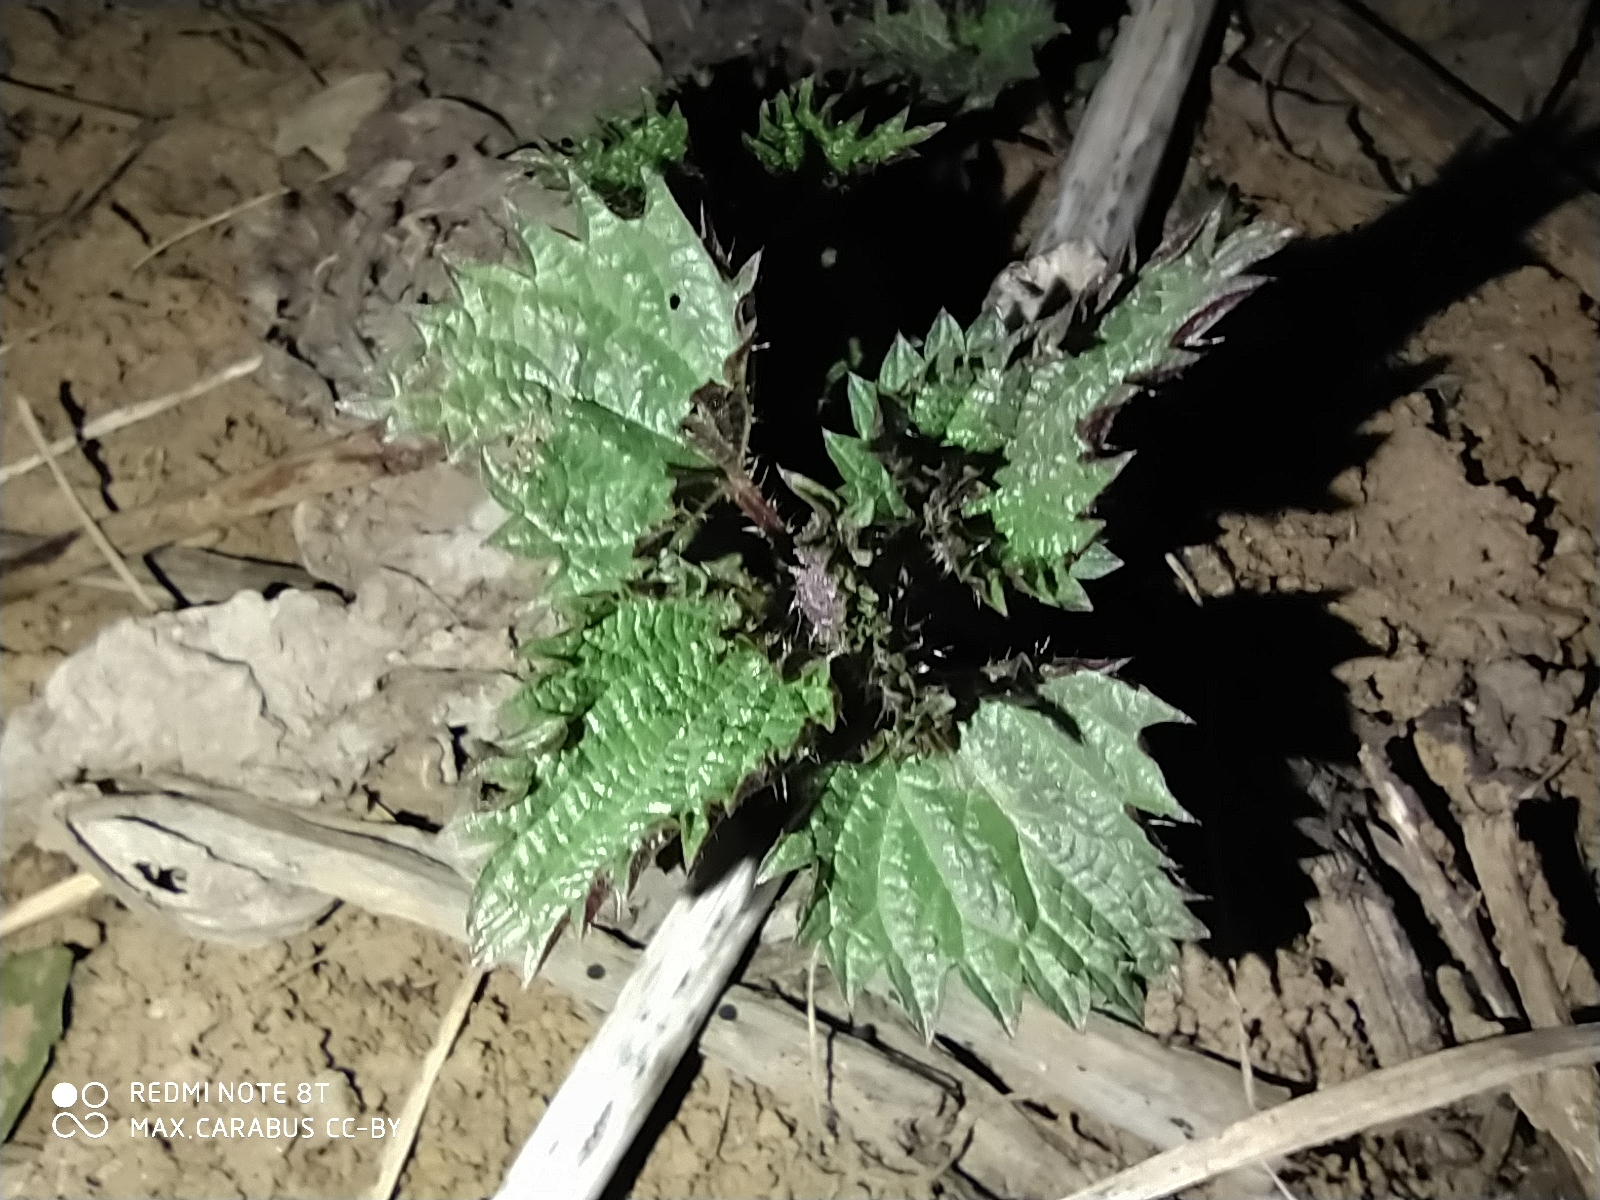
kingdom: Plantae
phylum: Tracheophyta
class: Magnoliopsida
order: Rosales
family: Urticaceae
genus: Urtica
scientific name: Urtica dioica
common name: Common nettle
